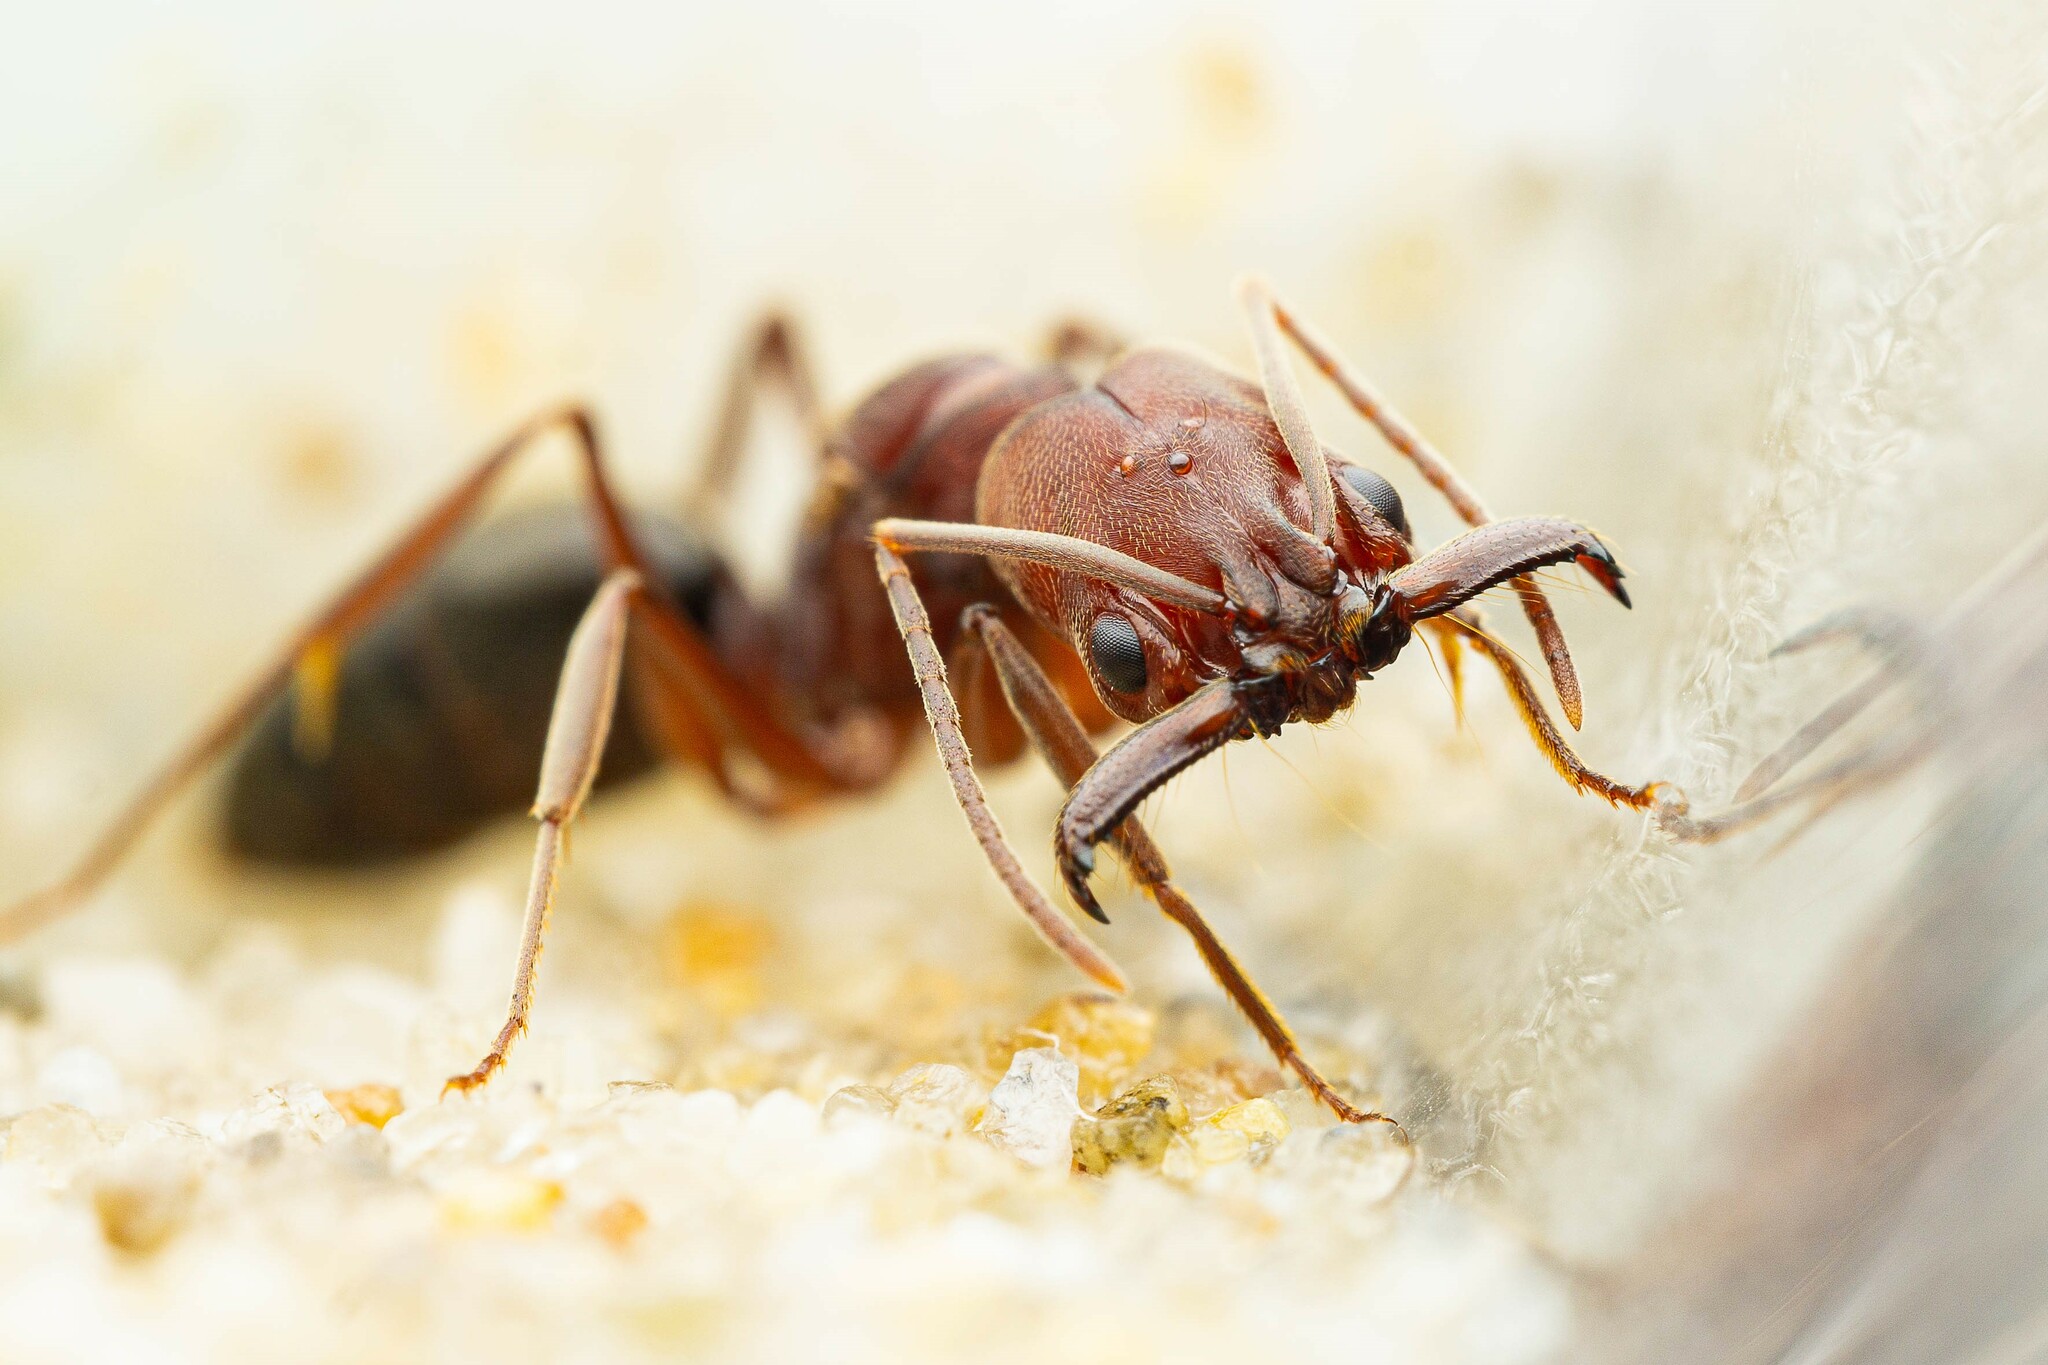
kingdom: Animalia
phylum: Arthropoda
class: Insecta
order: Hymenoptera
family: Formicidae
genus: Odontomachus
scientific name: Odontomachus
